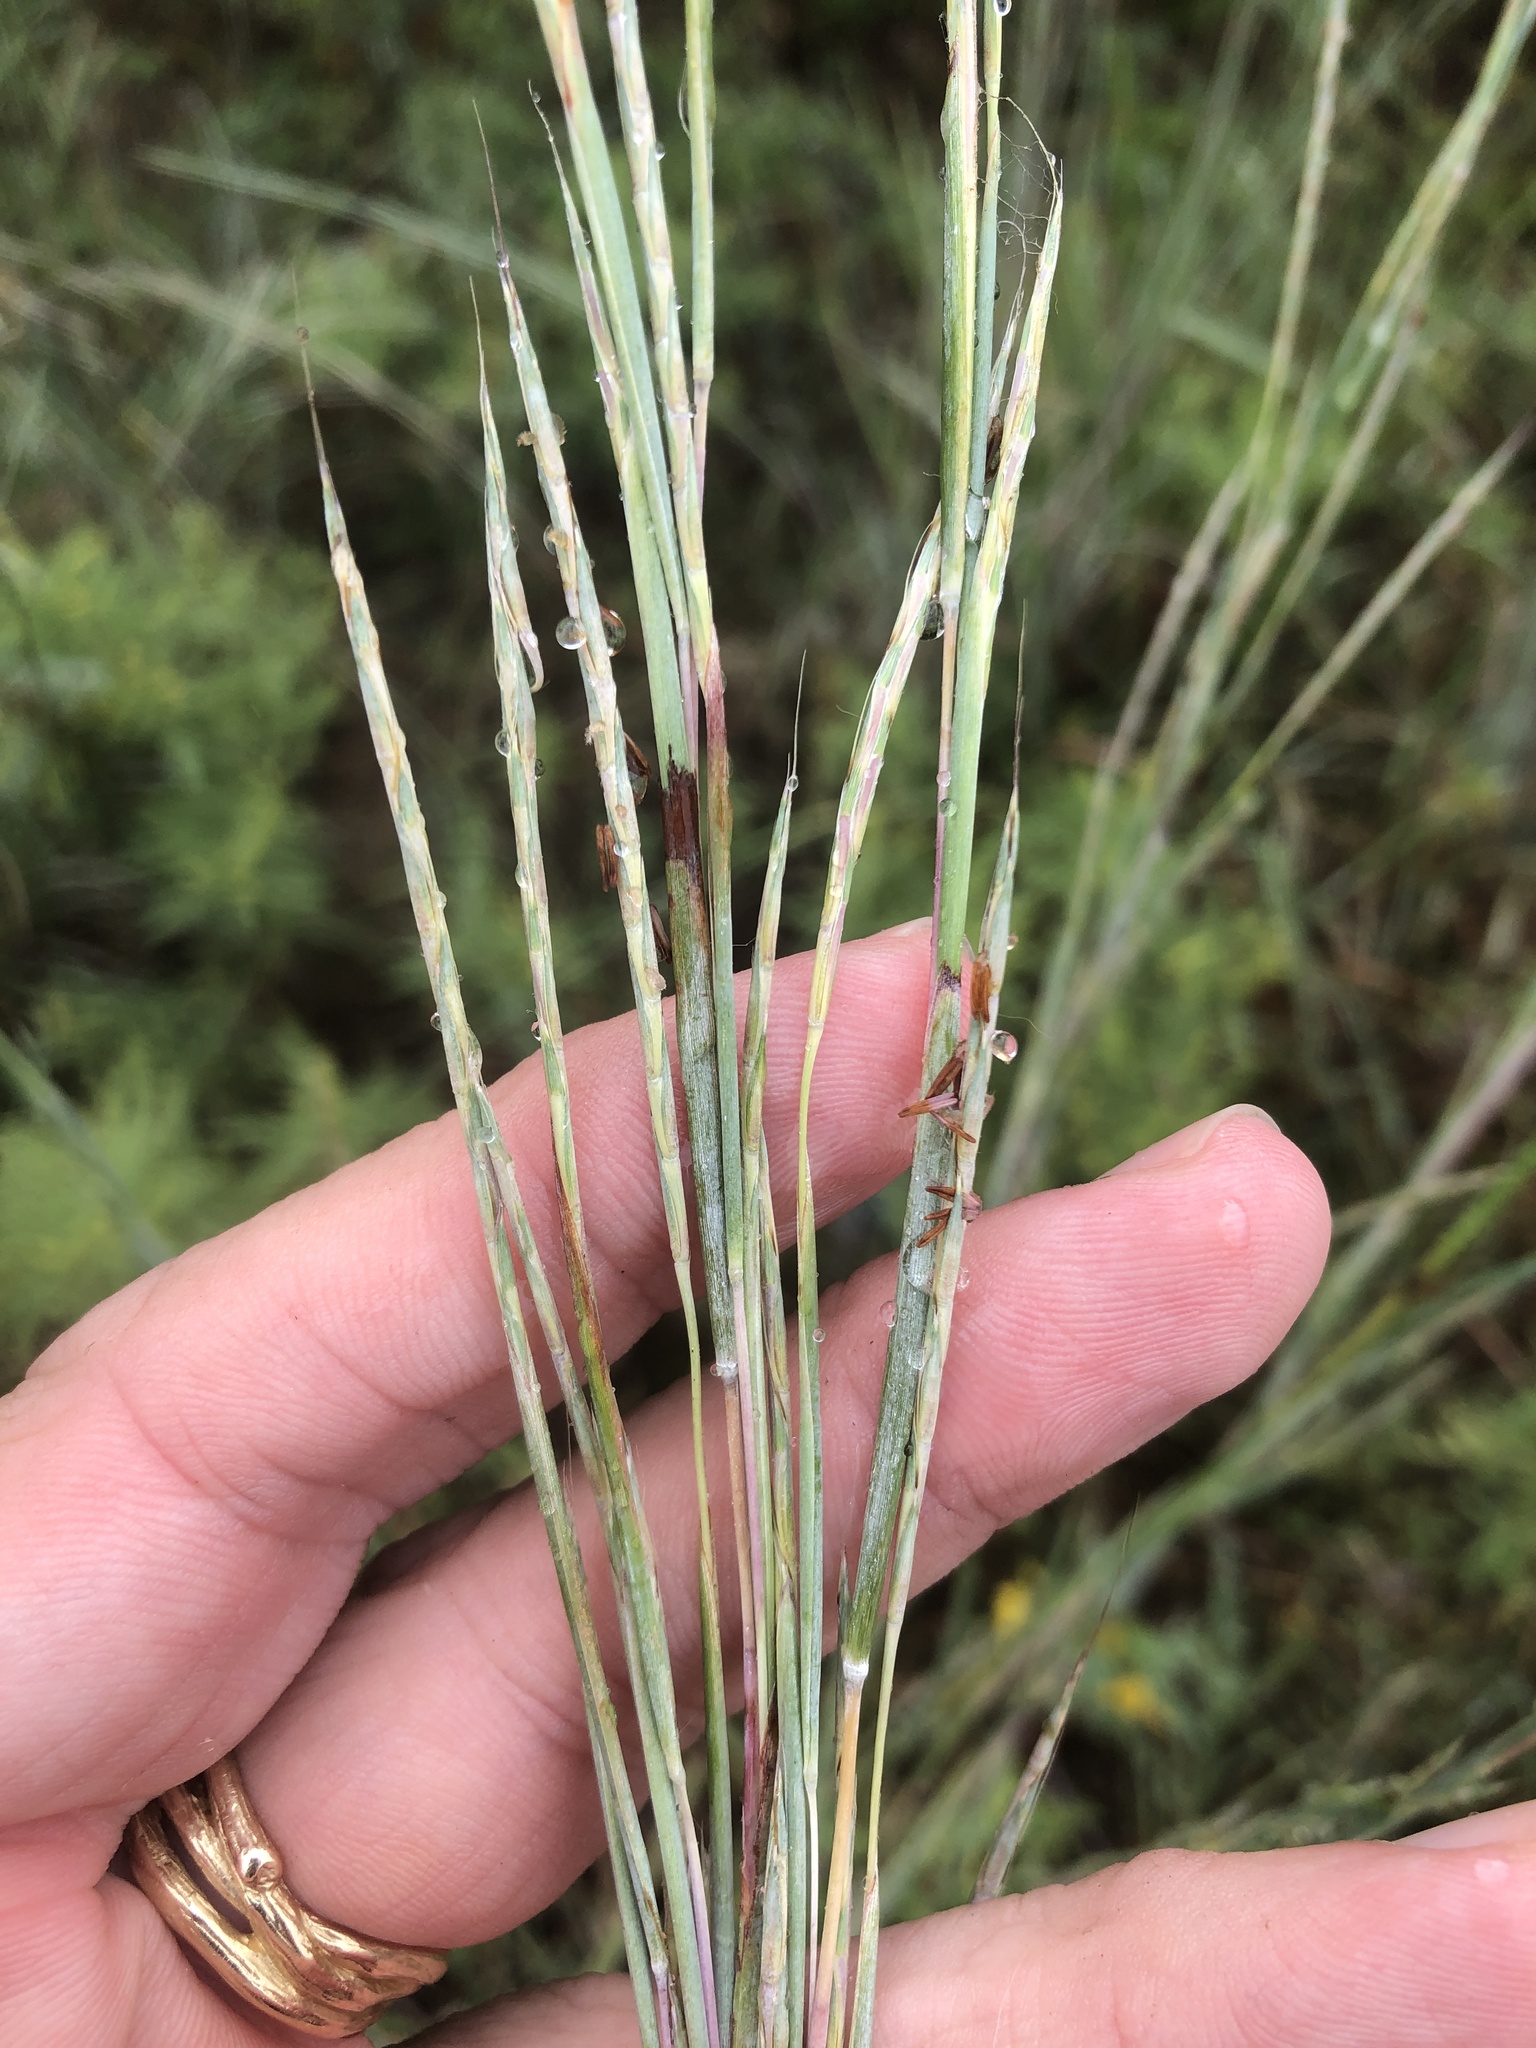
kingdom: Plantae
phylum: Tracheophyta
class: Liliopsida
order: Poales
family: Poaceae
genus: Schizachyrium
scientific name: Schizachyrium scoparium
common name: Little bluestem
